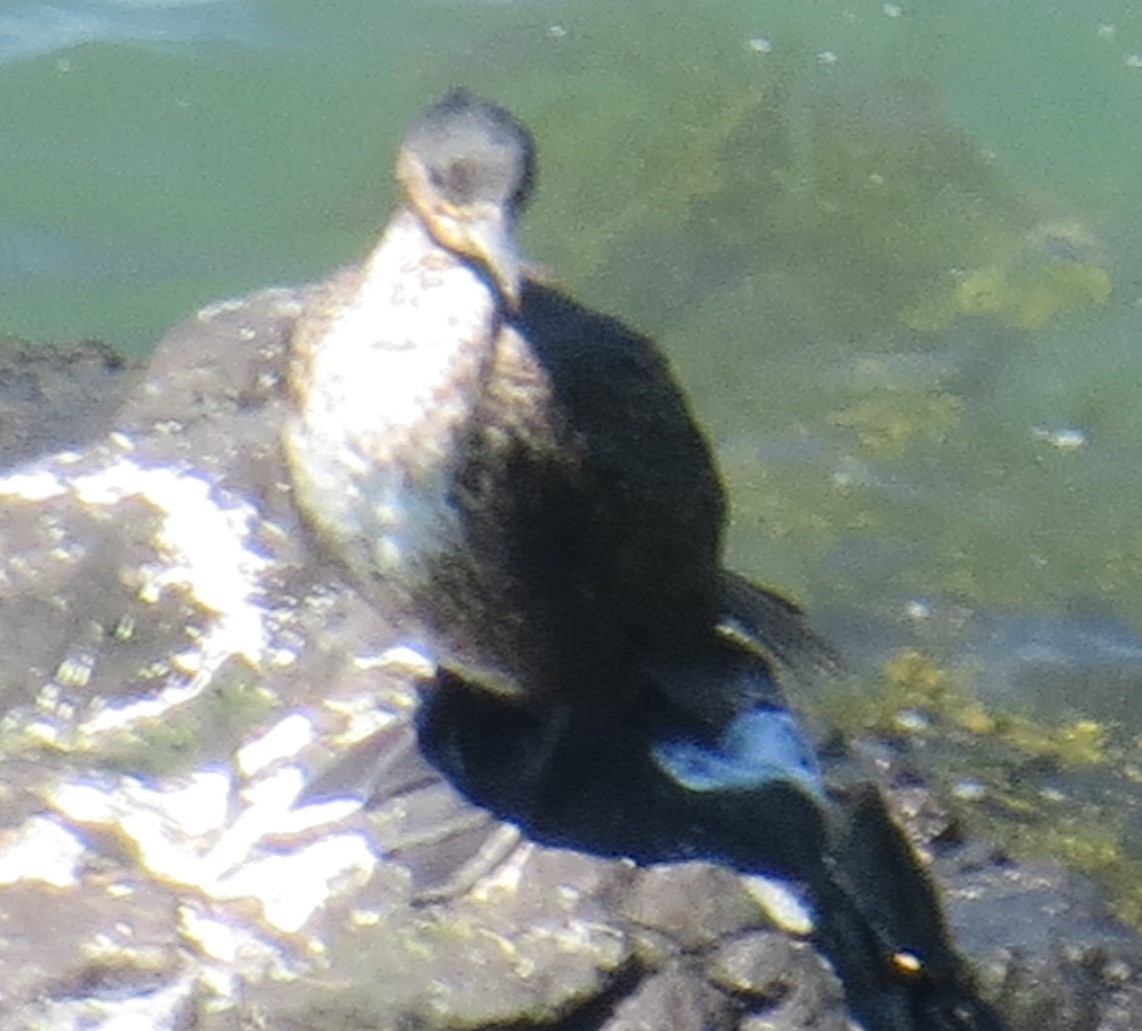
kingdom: Animalia
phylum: Chordata
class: Aves
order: Suliformes
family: Phalacrocoracidae
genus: Phalacrocorax
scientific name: Phalacrocorax carbo
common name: Great cormorant
